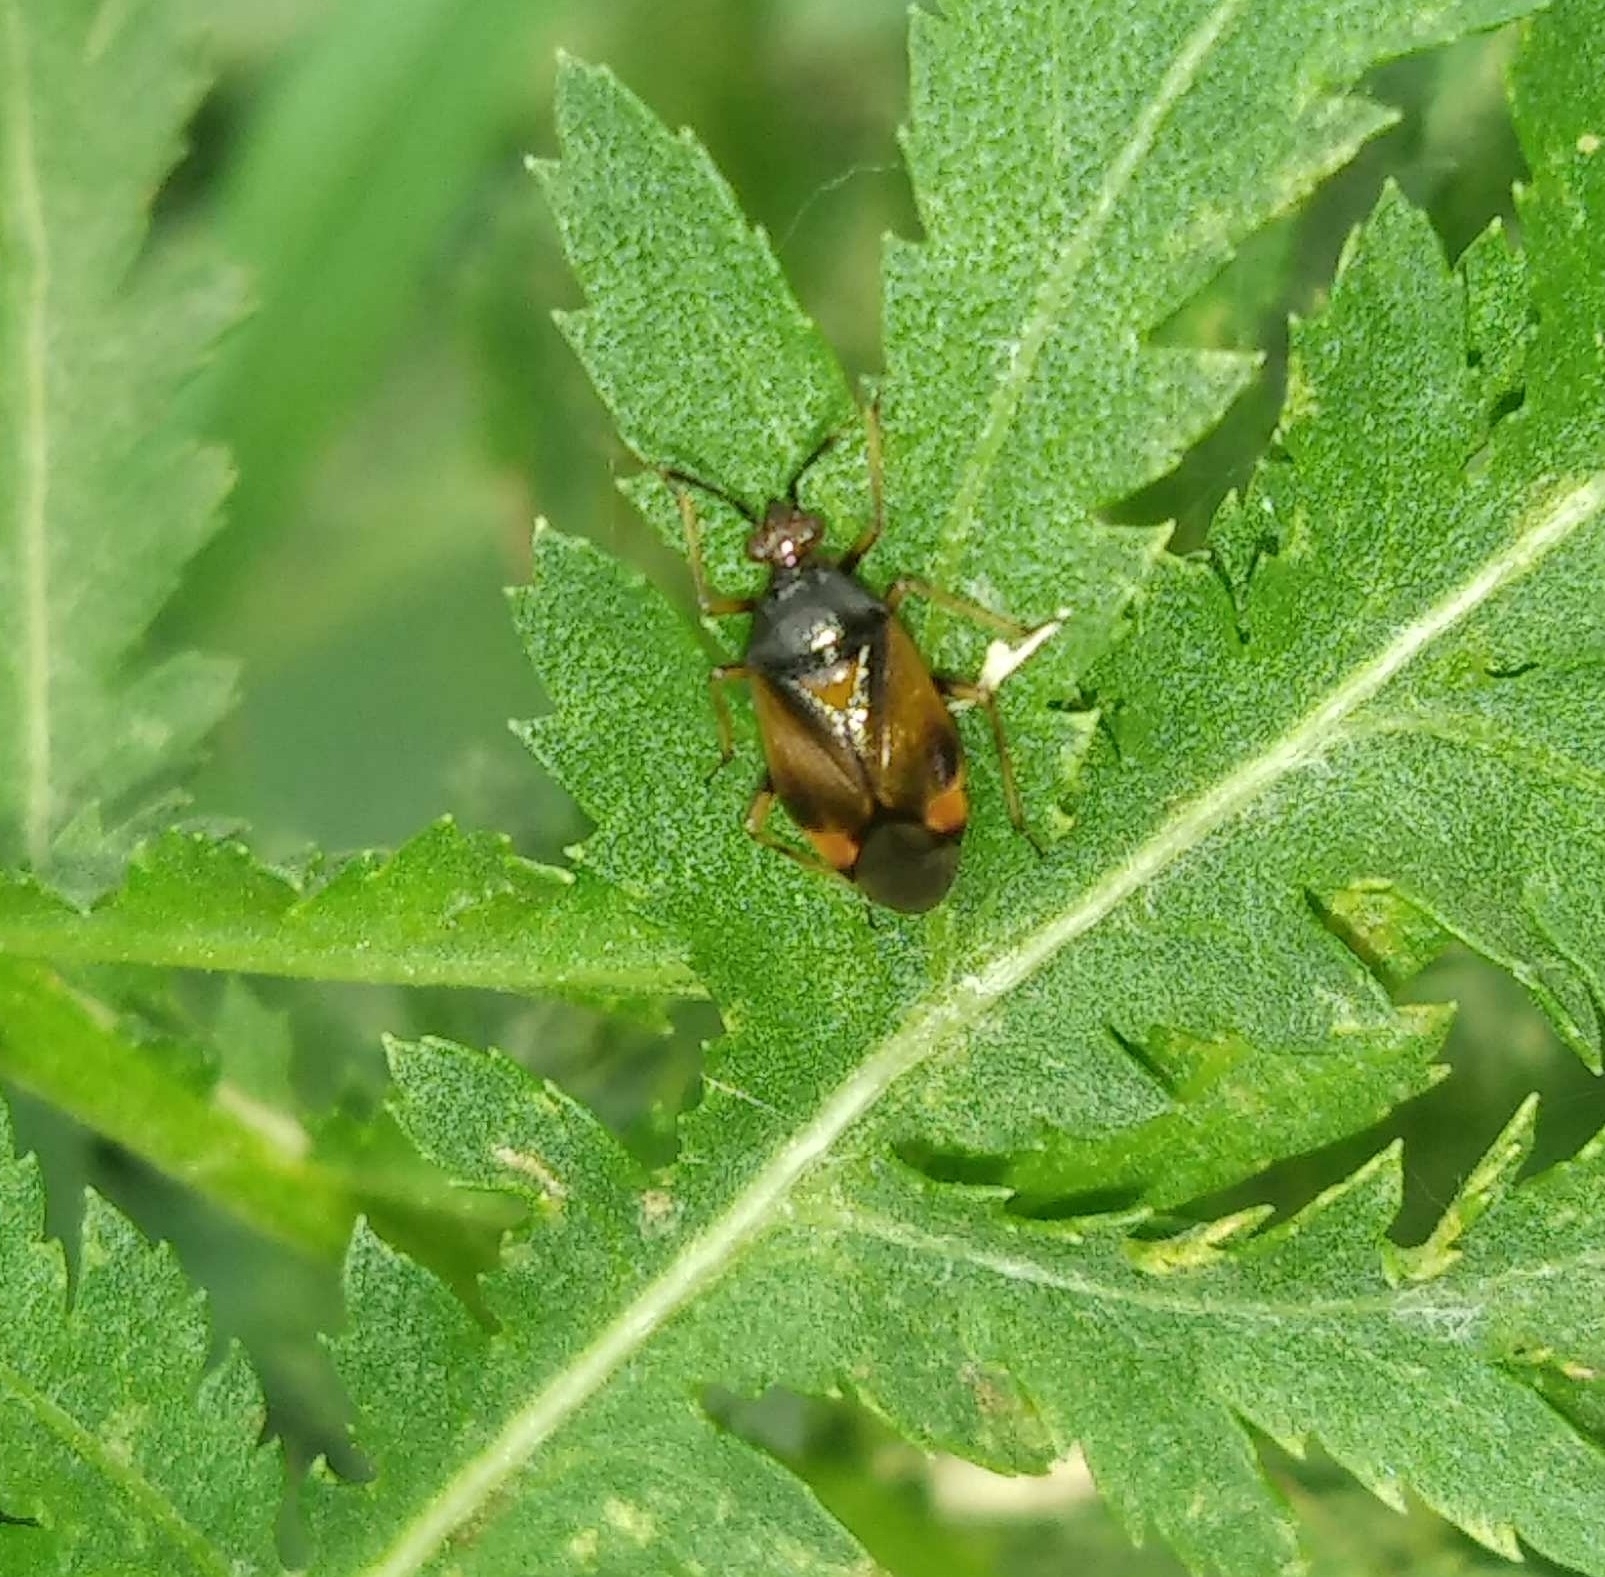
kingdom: Animalia
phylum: Arthropoda
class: Insecta
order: Hemiptera
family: Miridae
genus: Deraeocoris
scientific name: Deraeocoris ruber
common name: Plant bug
